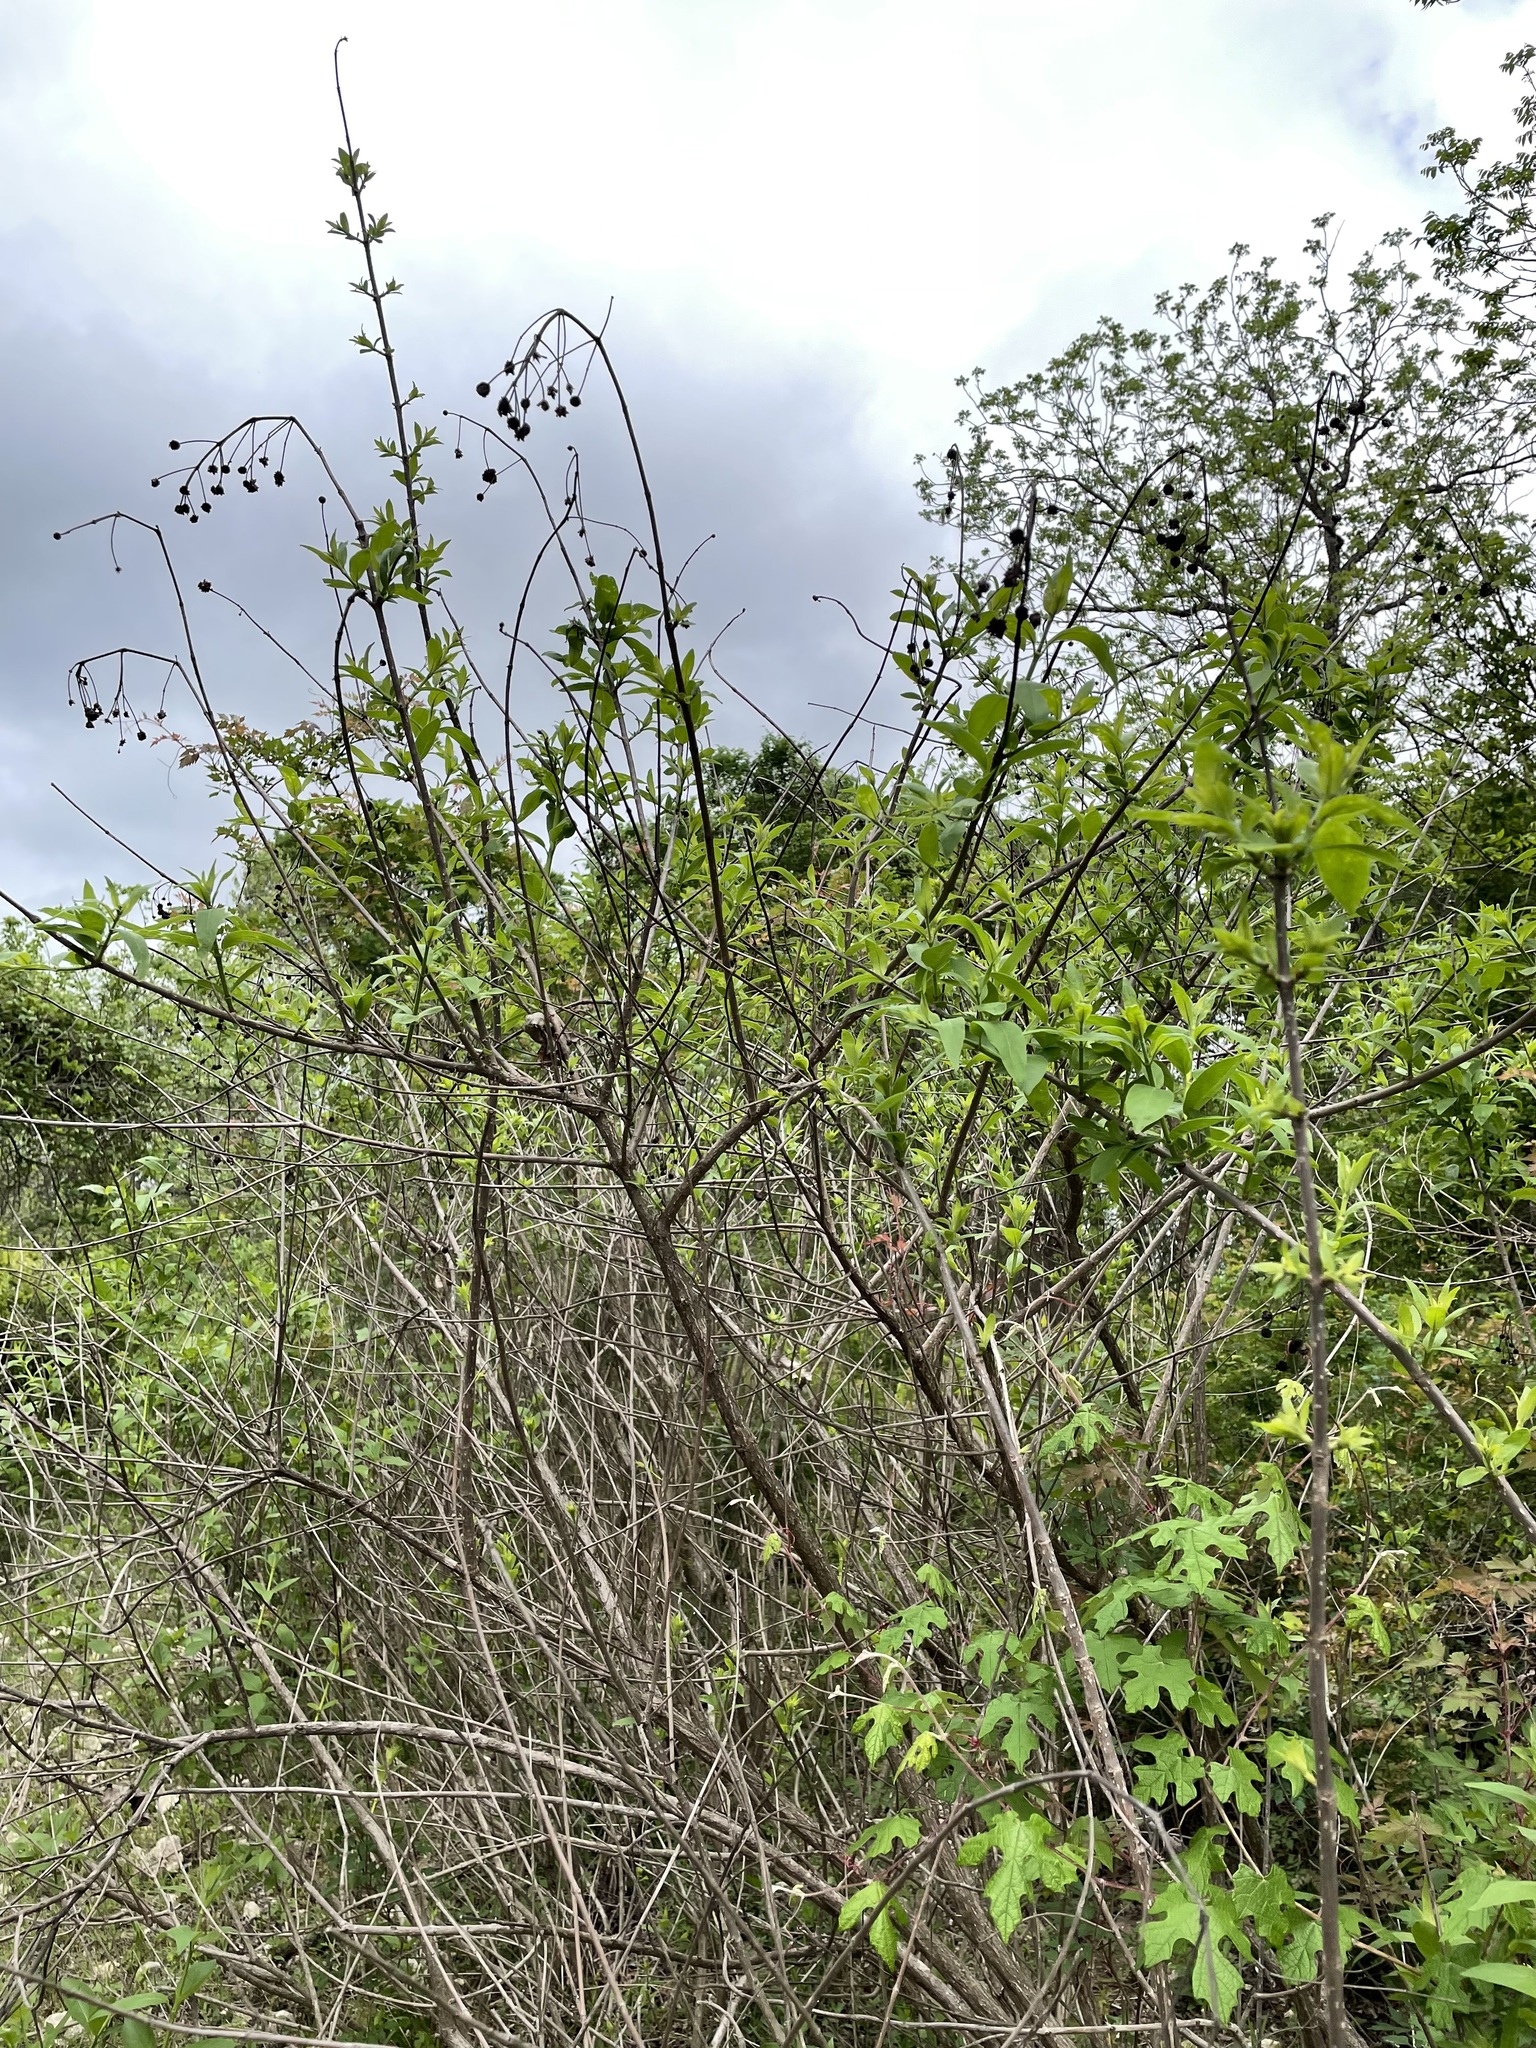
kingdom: Plantae
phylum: Tracheophyta
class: Magnoliopsida
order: Gentianales
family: Rubiaceae
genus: Cephalanthus
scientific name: Cephalanthus occidentalis
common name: Button-willow
